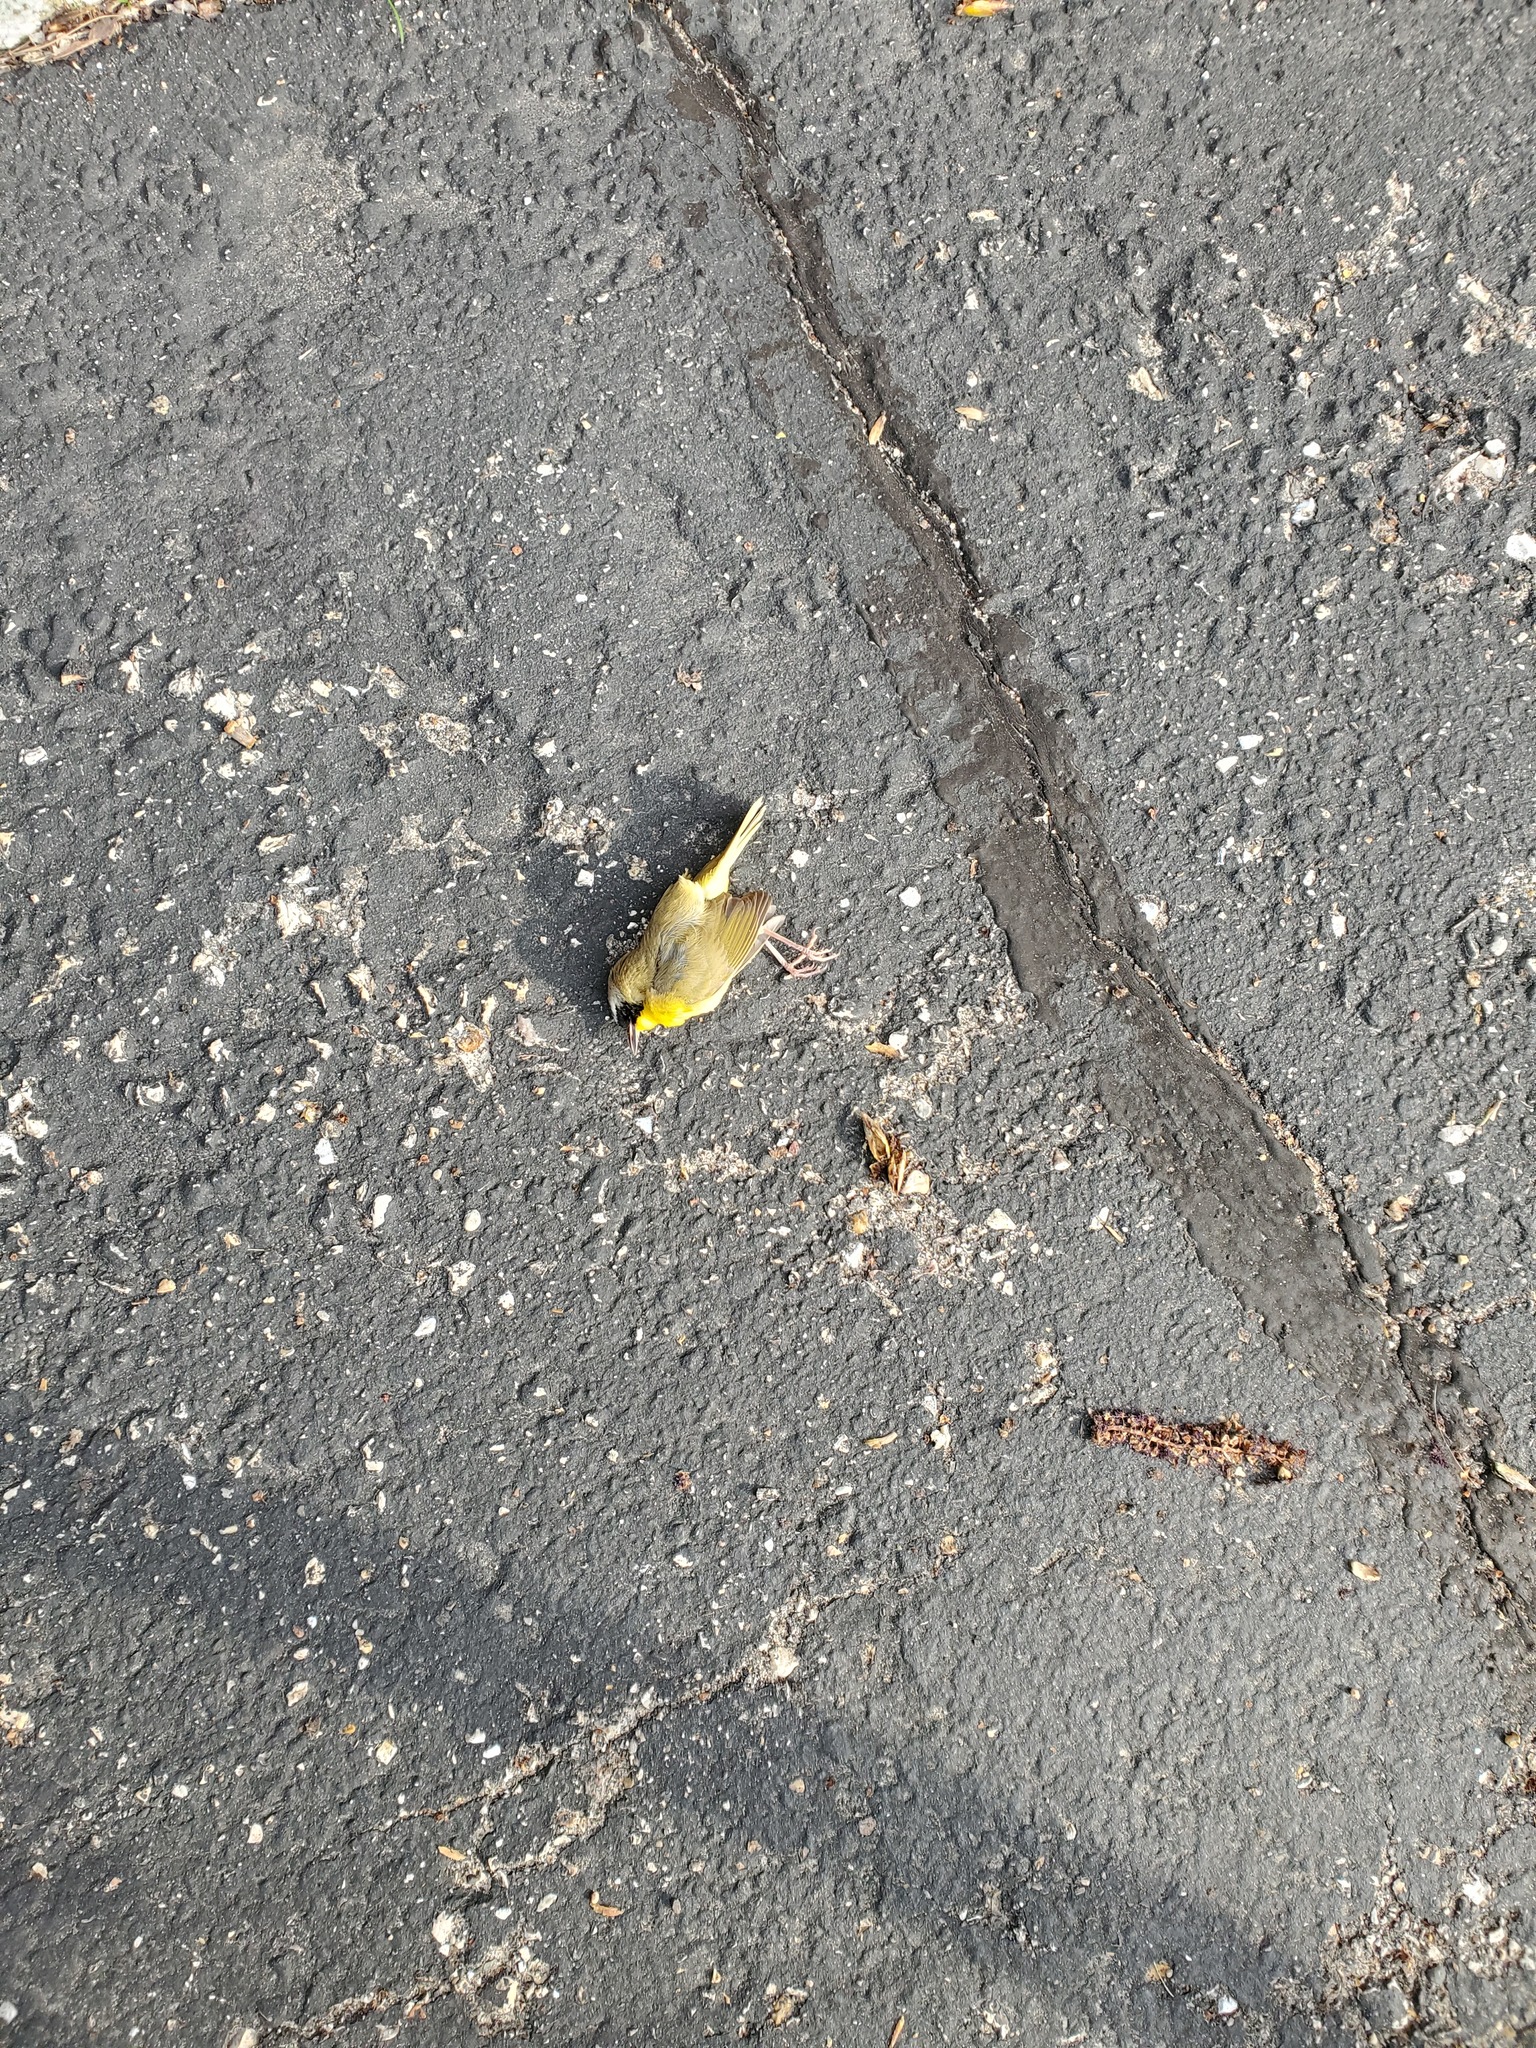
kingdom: Animalia
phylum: Chordata
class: Aves
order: Passeriformes
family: Parulidae
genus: Geothlypis
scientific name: Geothlypis trichas
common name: Common yellowthroat
